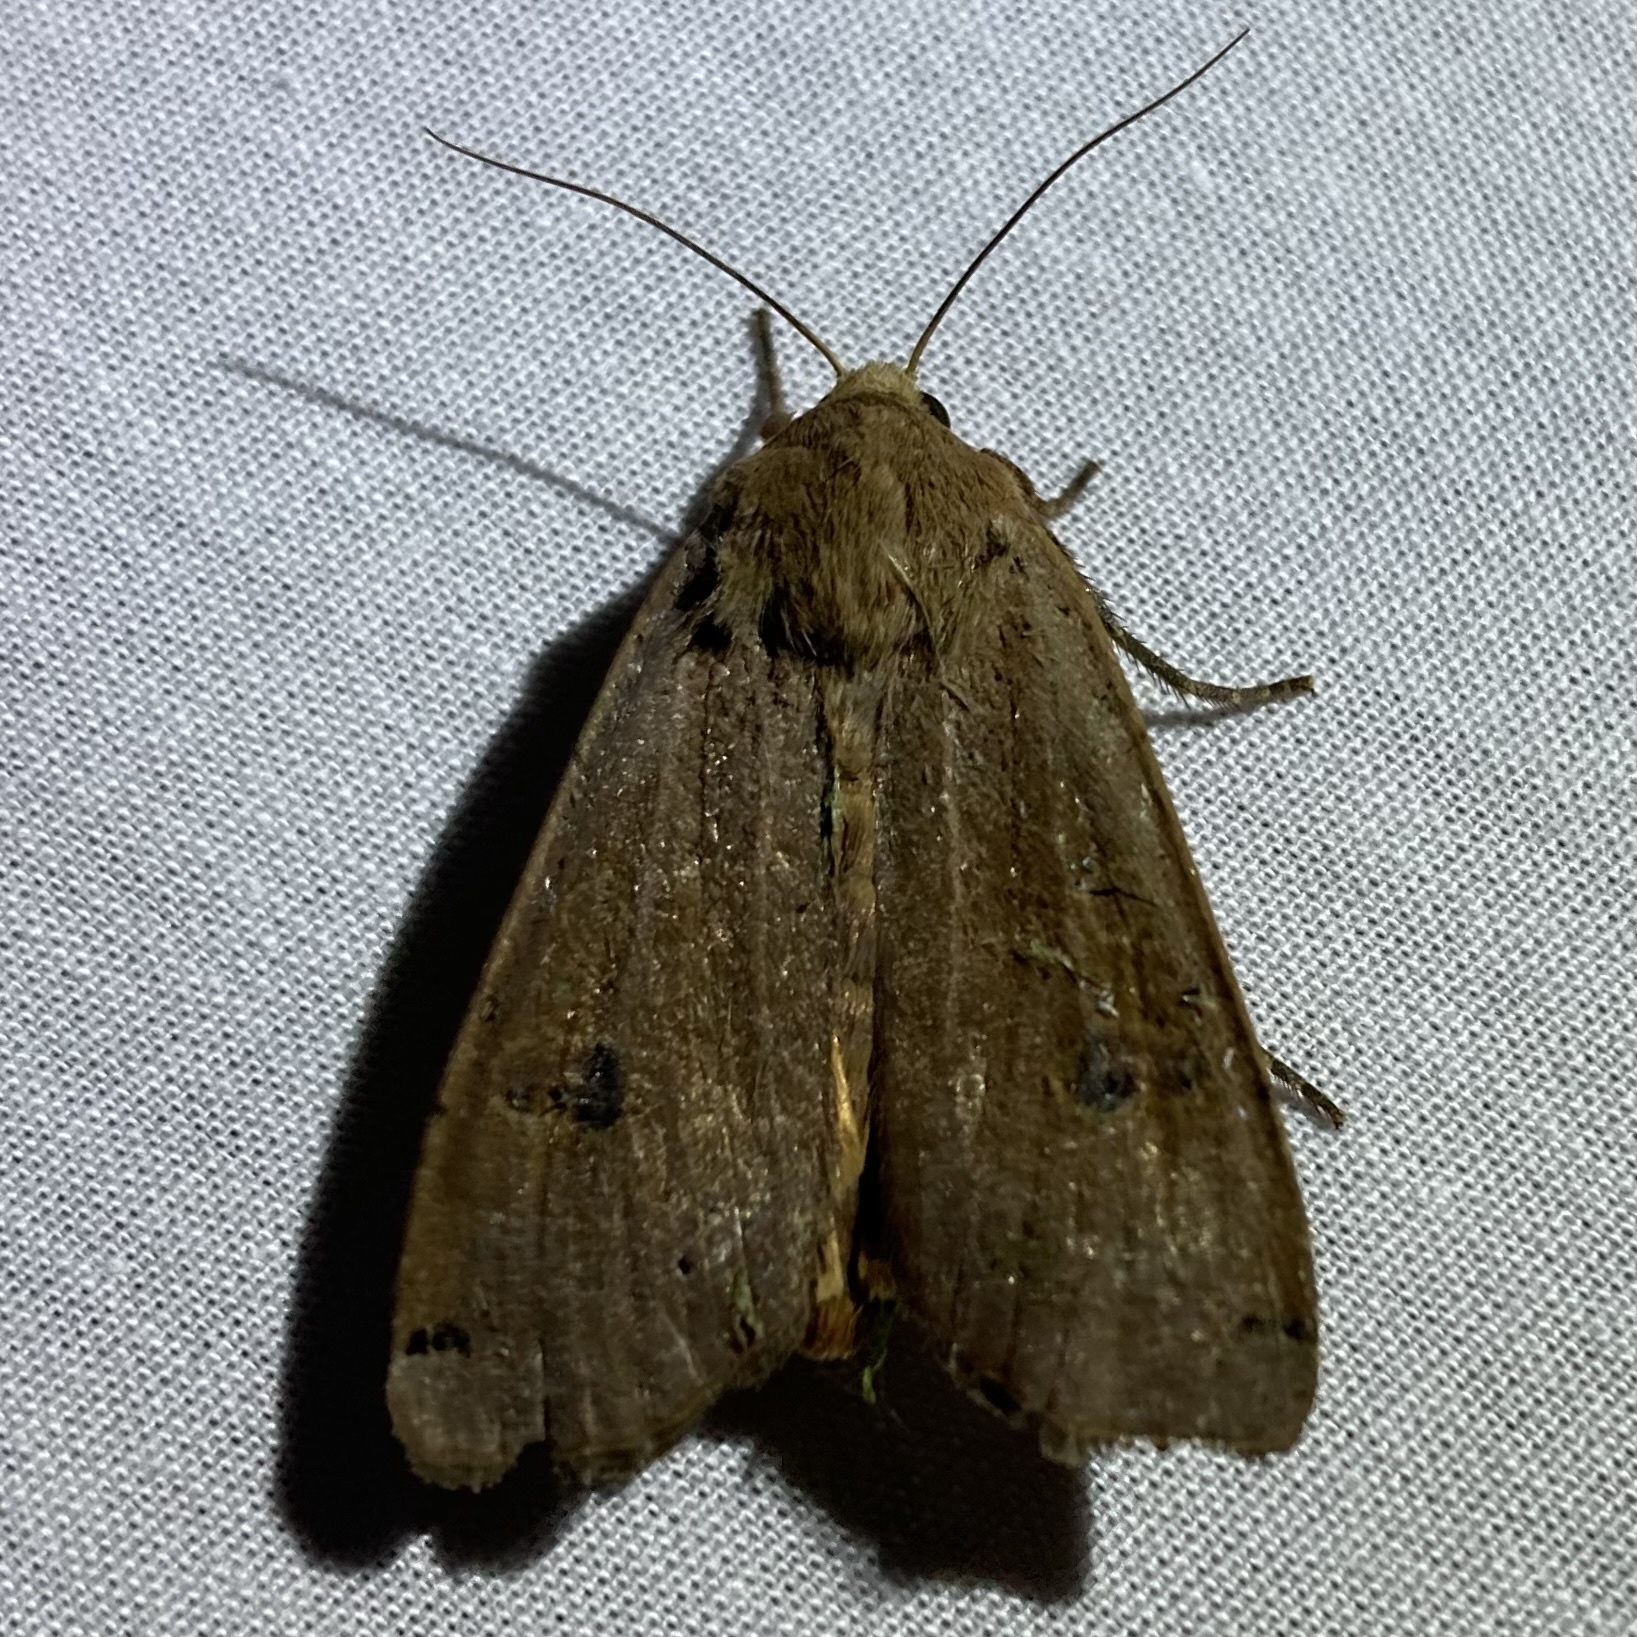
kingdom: Animalia
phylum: Arthropoda
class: Insecta
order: Lepidoptera
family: Noctuidae
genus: Noctua
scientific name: Noctua pronuba
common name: Large yellow underwing
